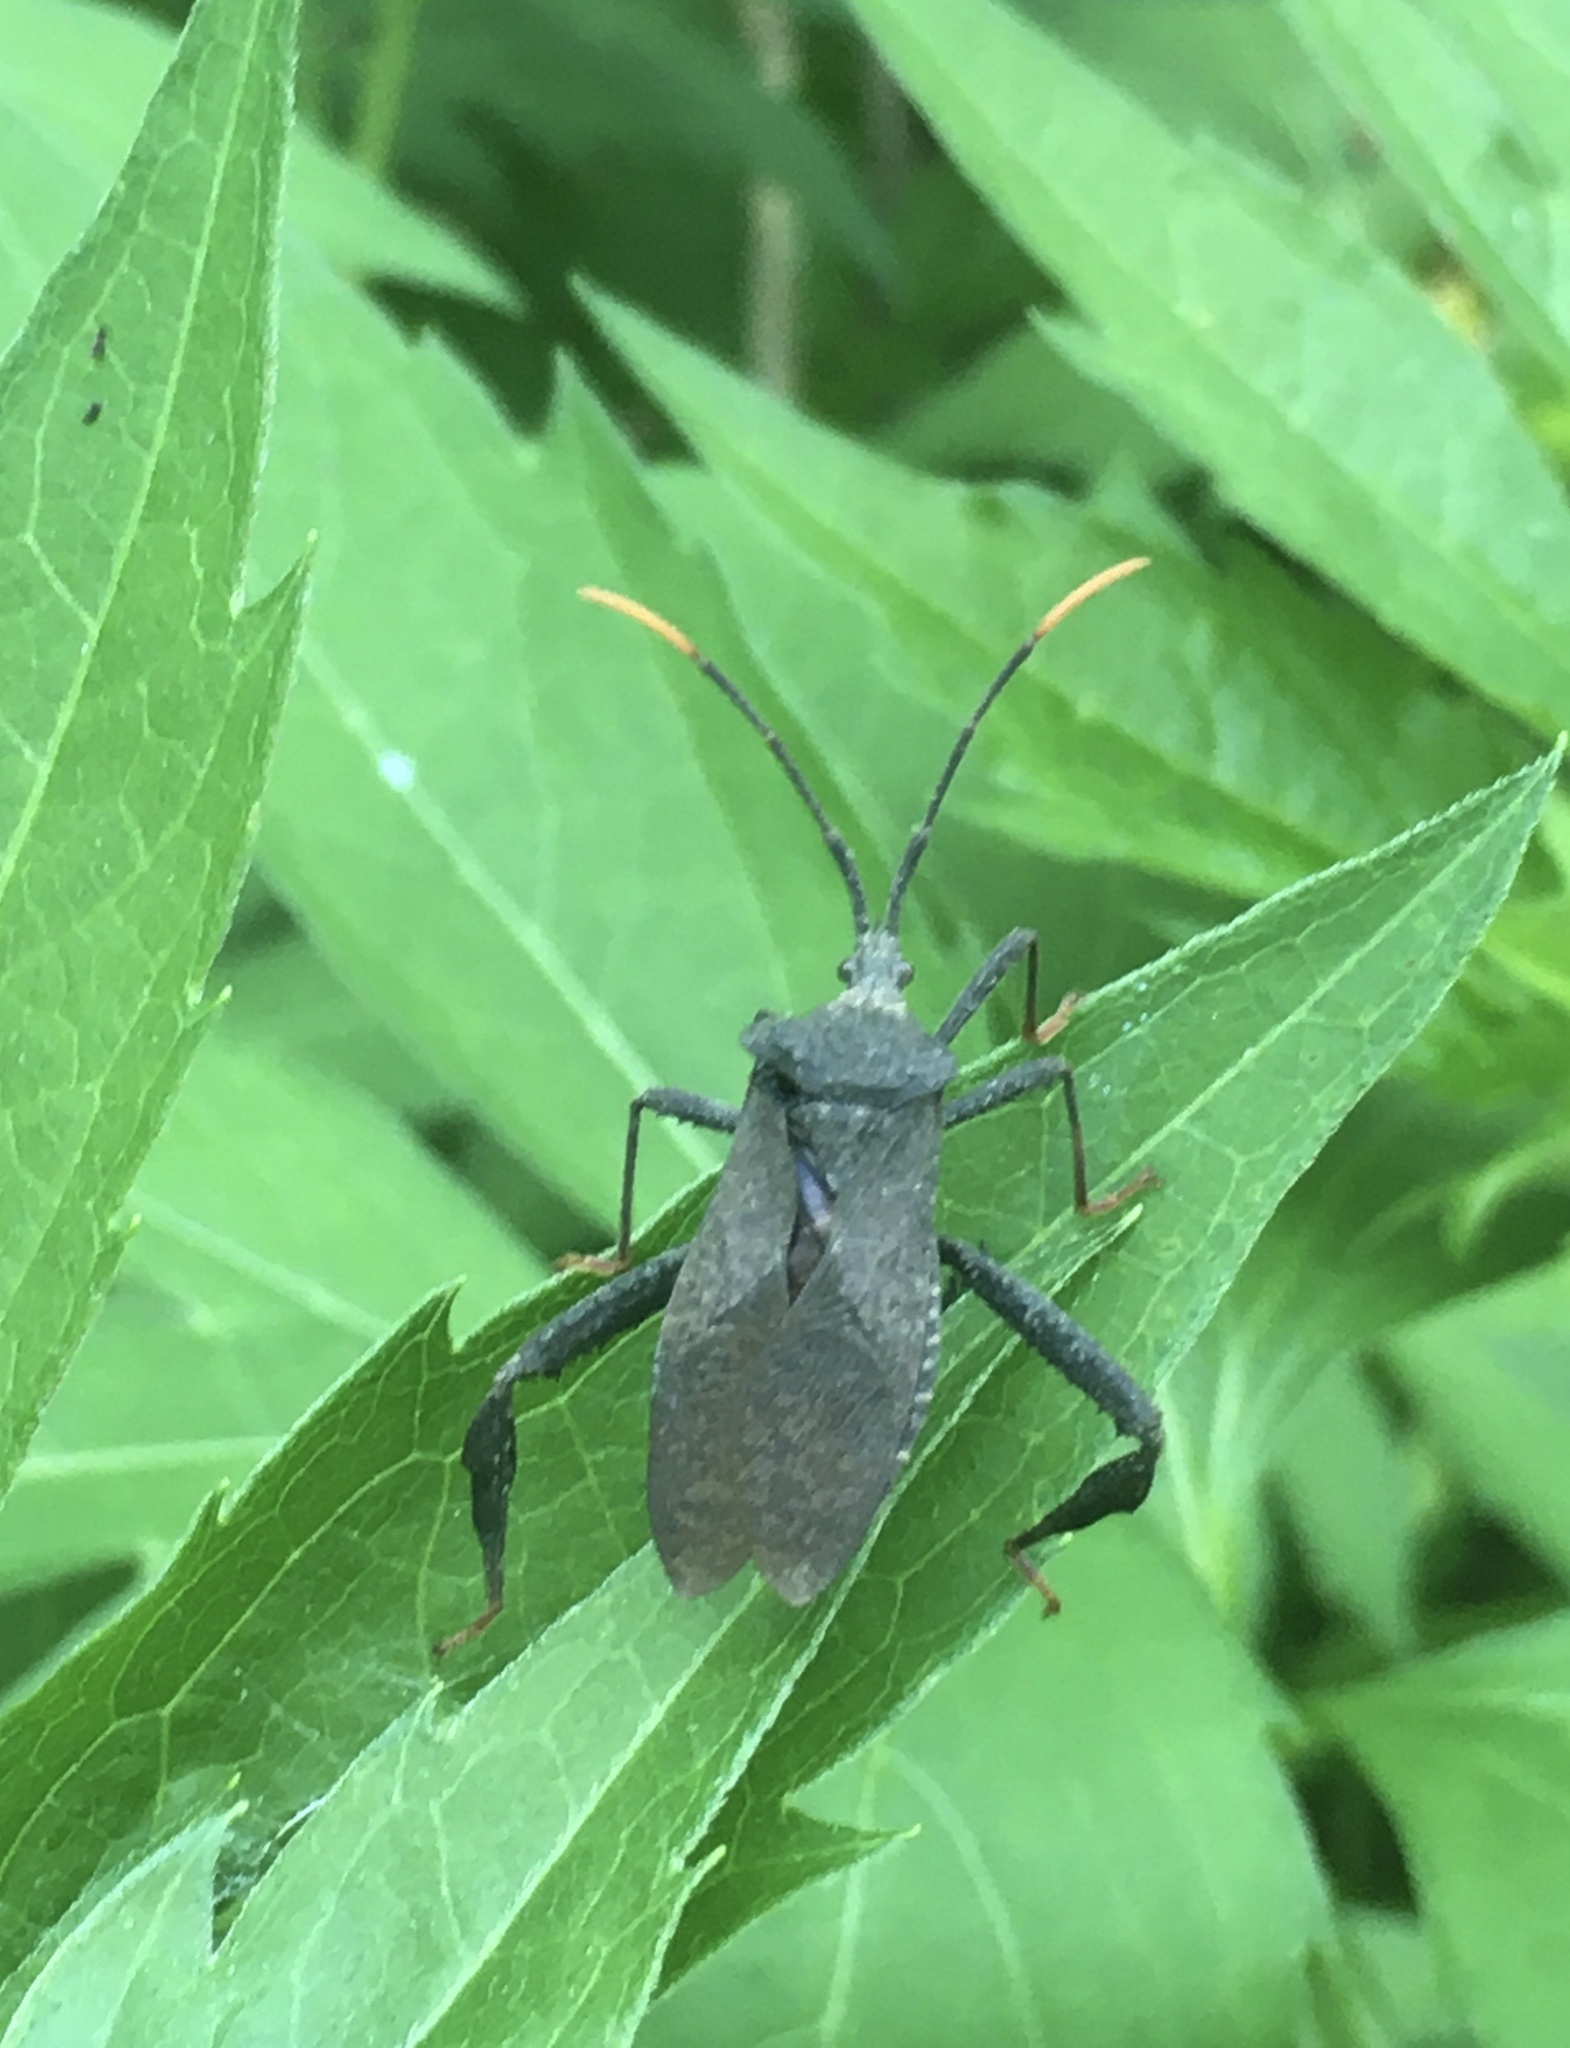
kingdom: Animalia
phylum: Arthropoda
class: Insecta
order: Hemiptera
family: Coreidae
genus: Acanthocephala
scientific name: Acanthocephala terminalis
